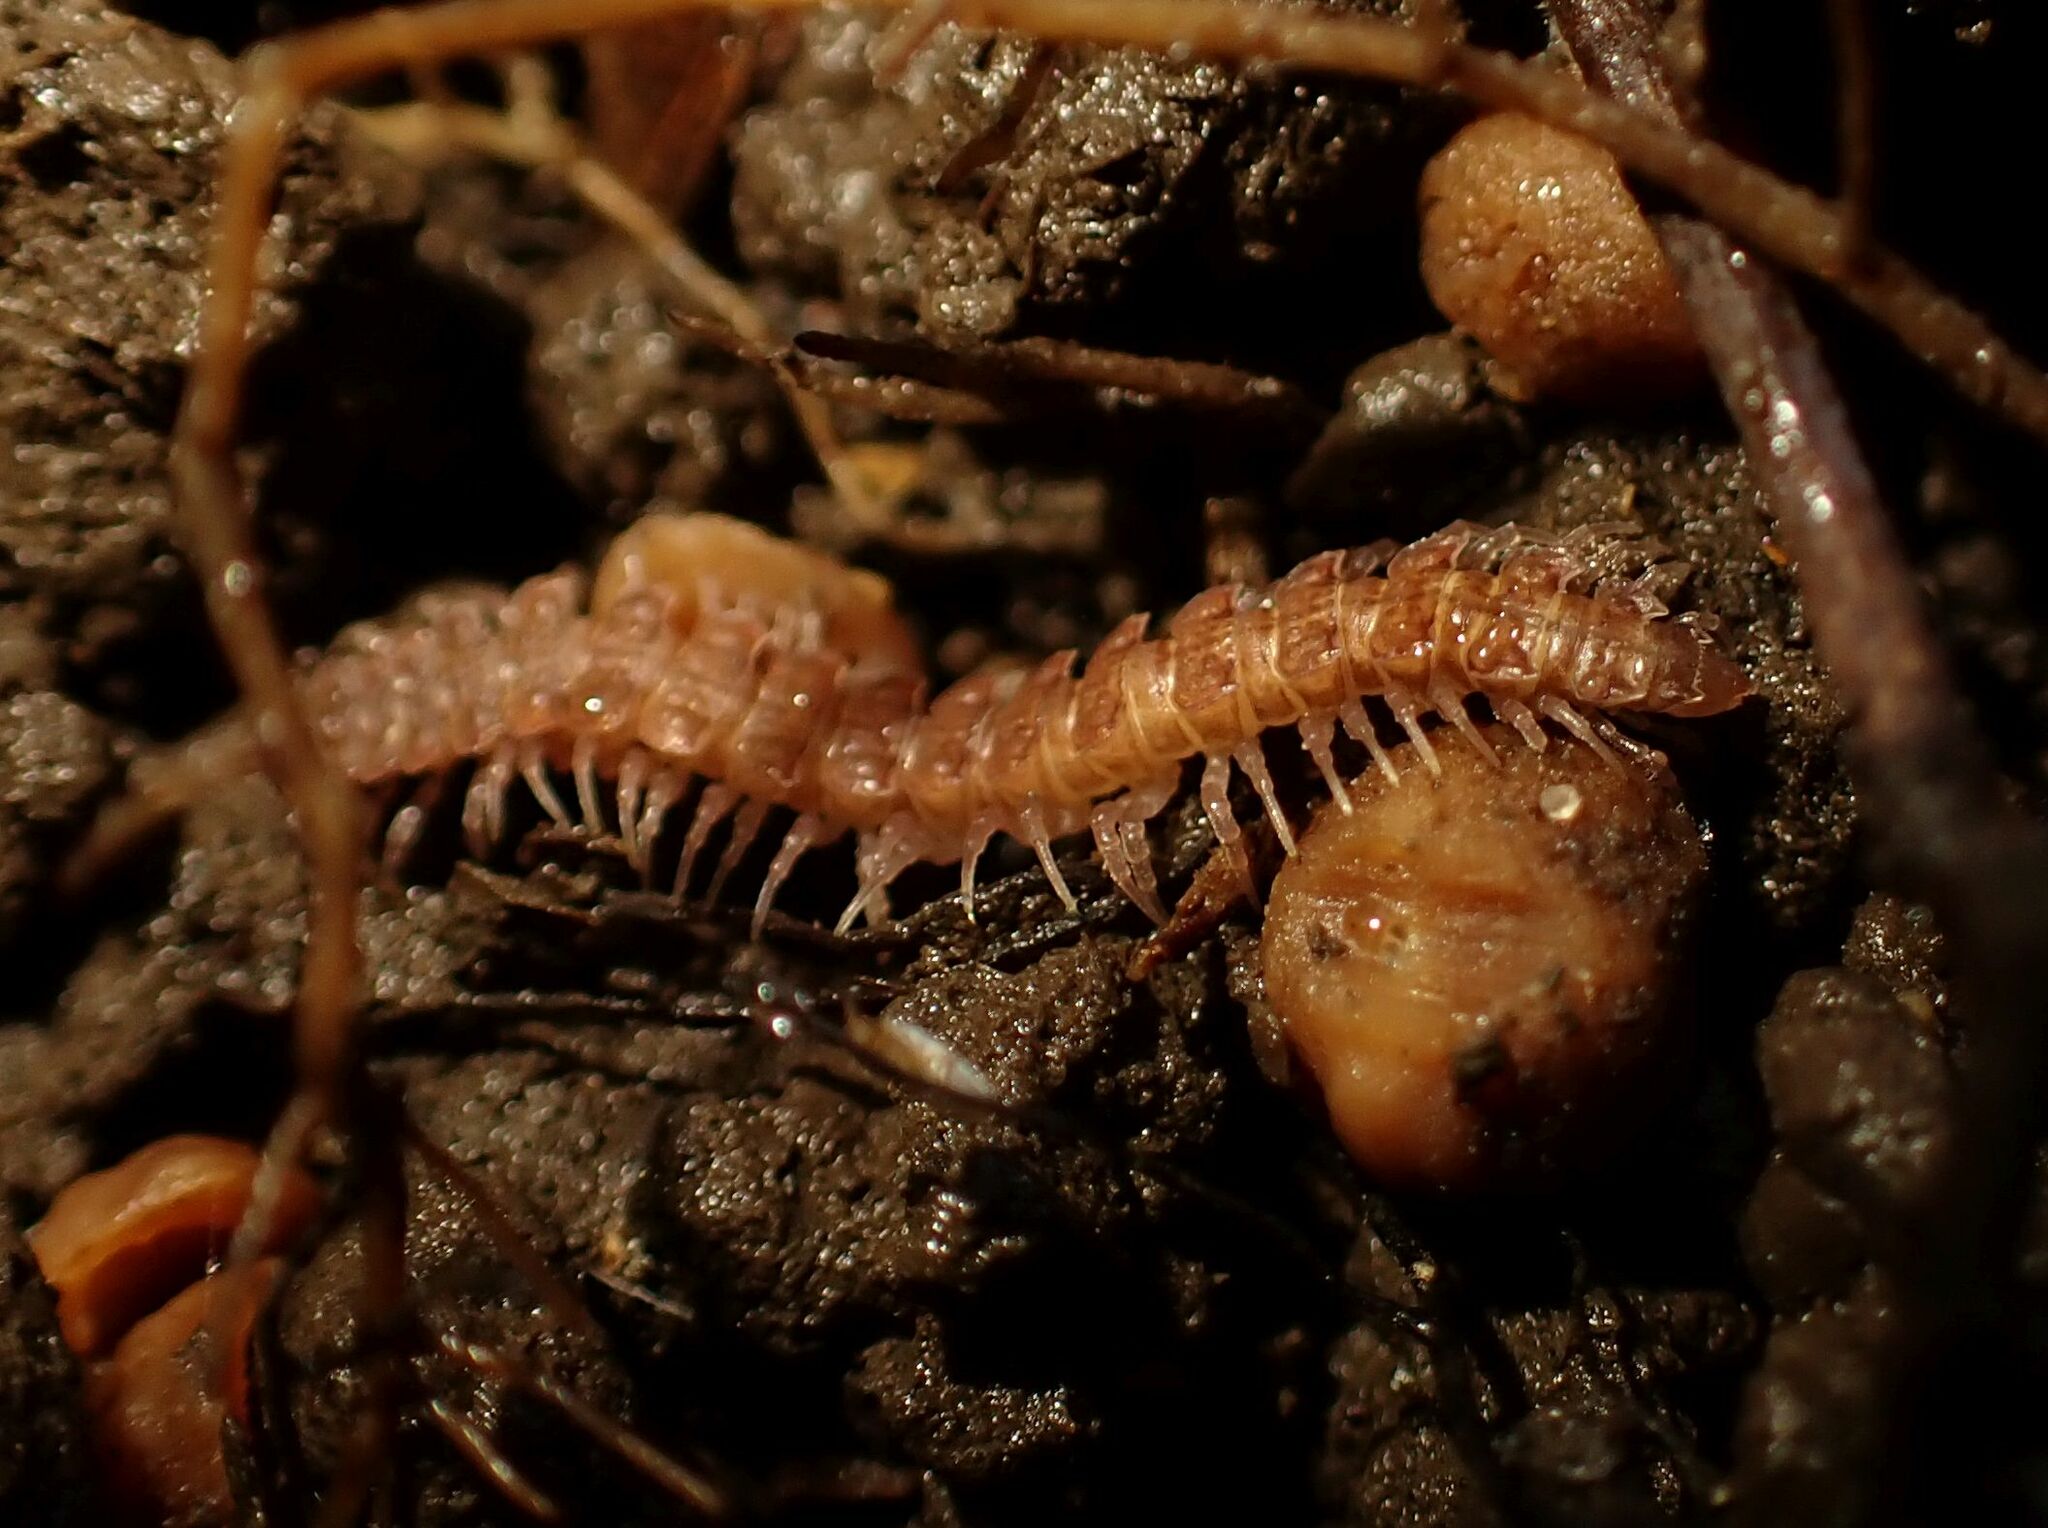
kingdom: Animalia
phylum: Arthropoda
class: Diplopoda
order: Polydesmida
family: Polydesmidae
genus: Brachydesmus
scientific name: Brachydesmus superus
